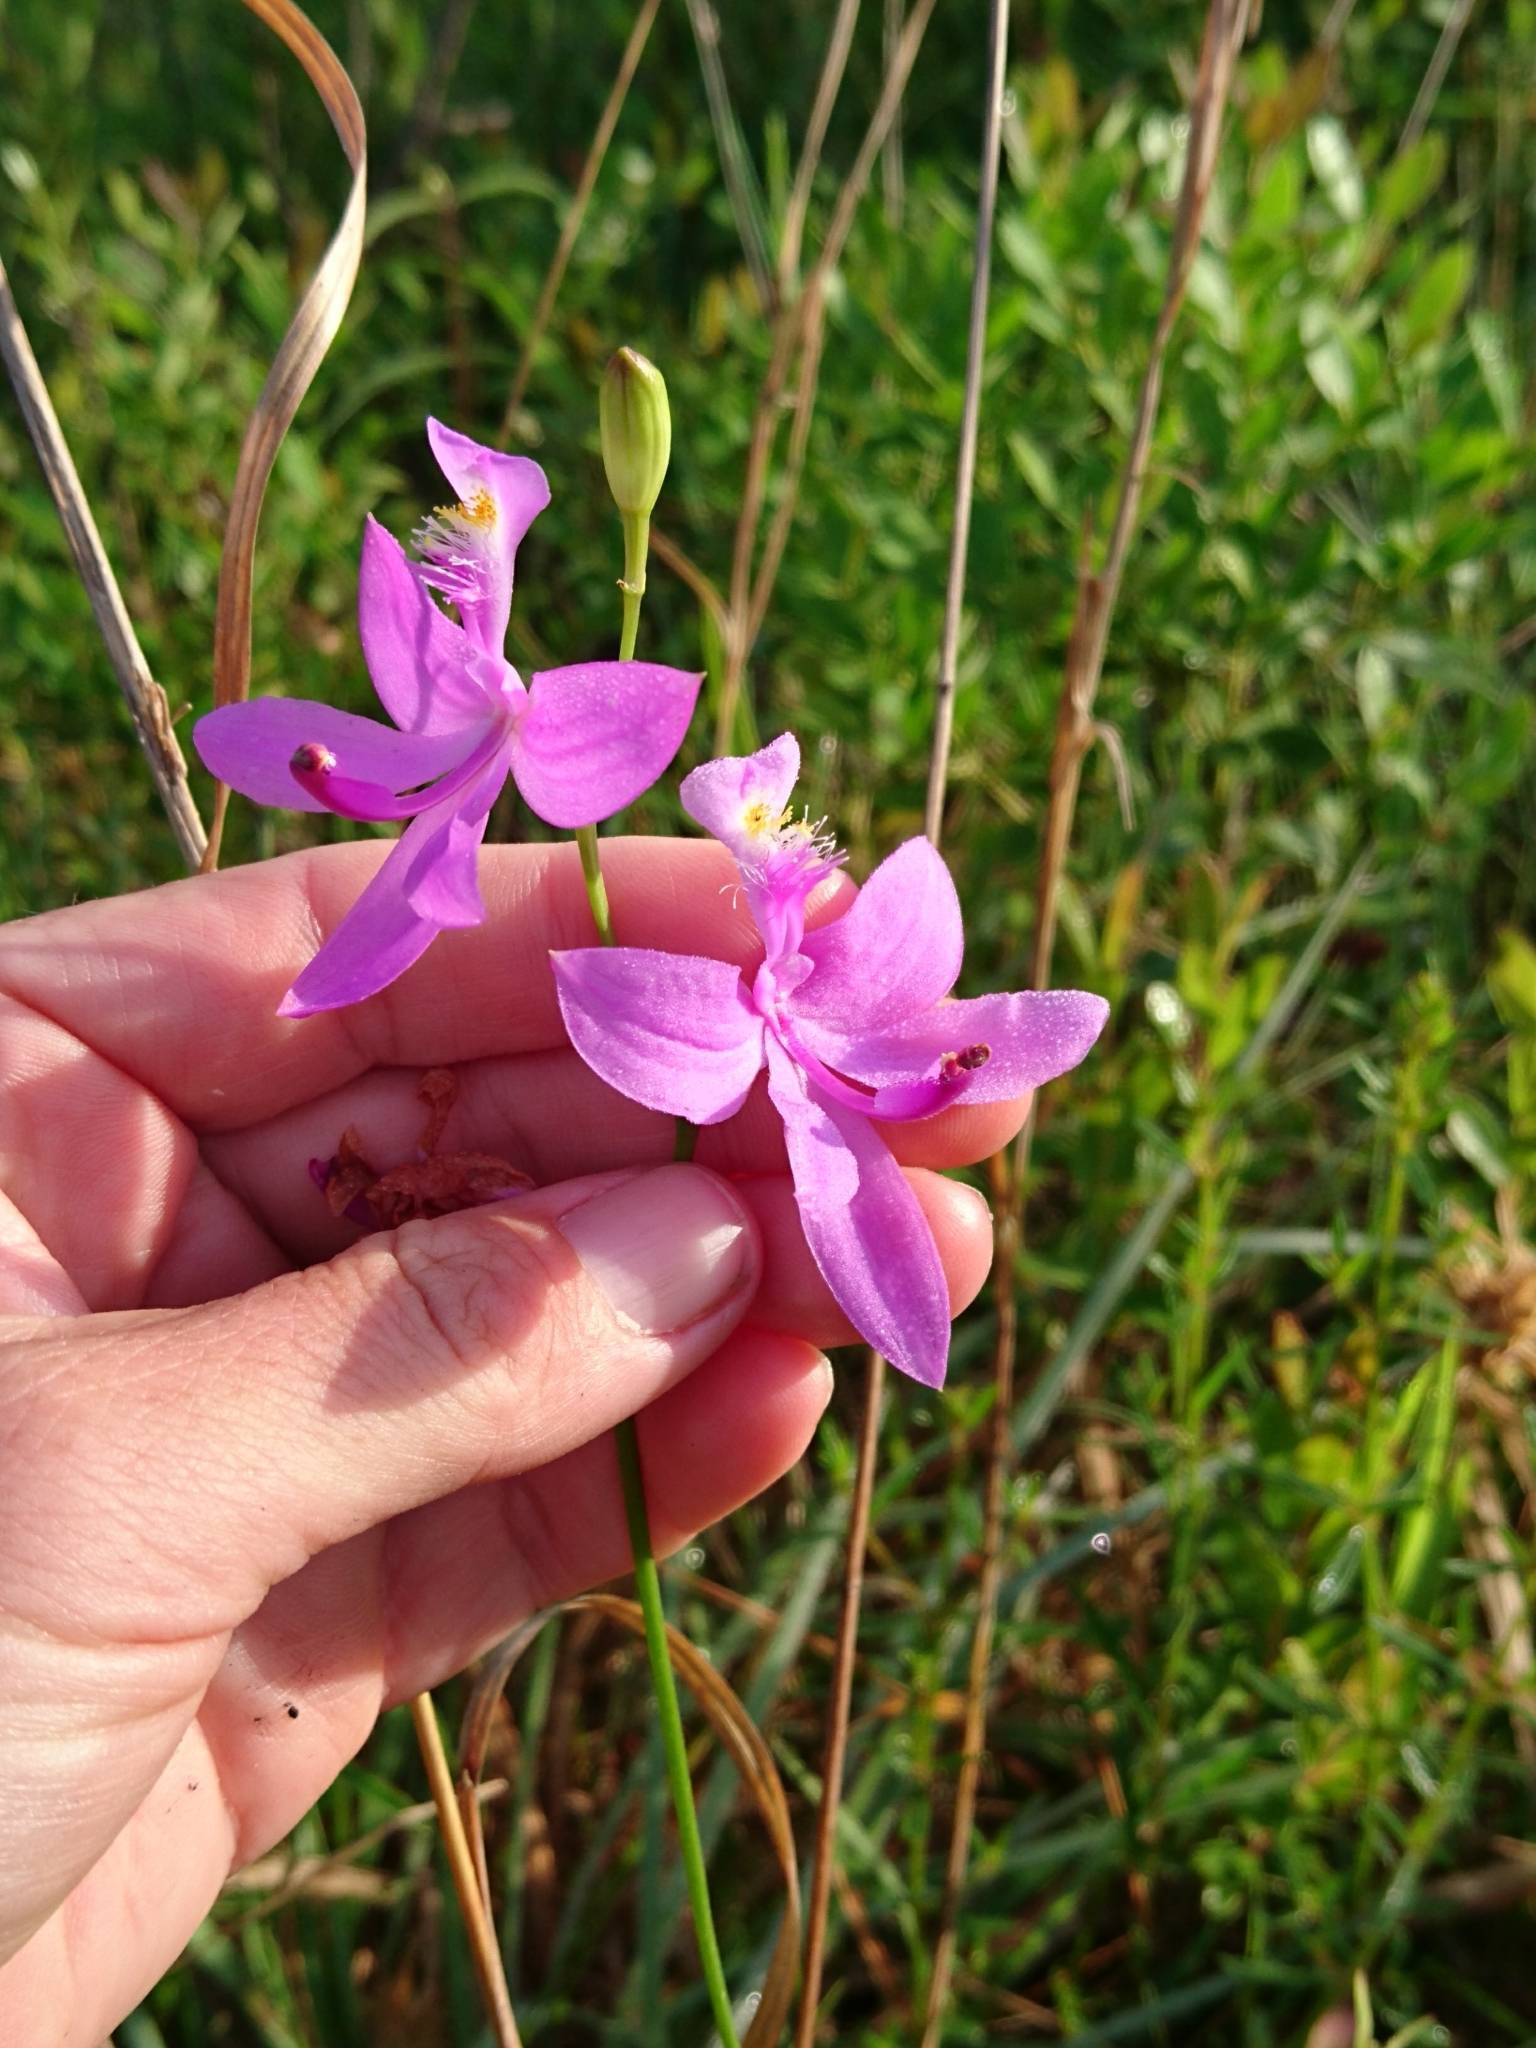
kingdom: Plantae
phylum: Tracheophyta
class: Liliopsida
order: Asparagales
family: Orchidaceae
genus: Calopogon
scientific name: Calopogon tuberosus
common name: Grass-pink
